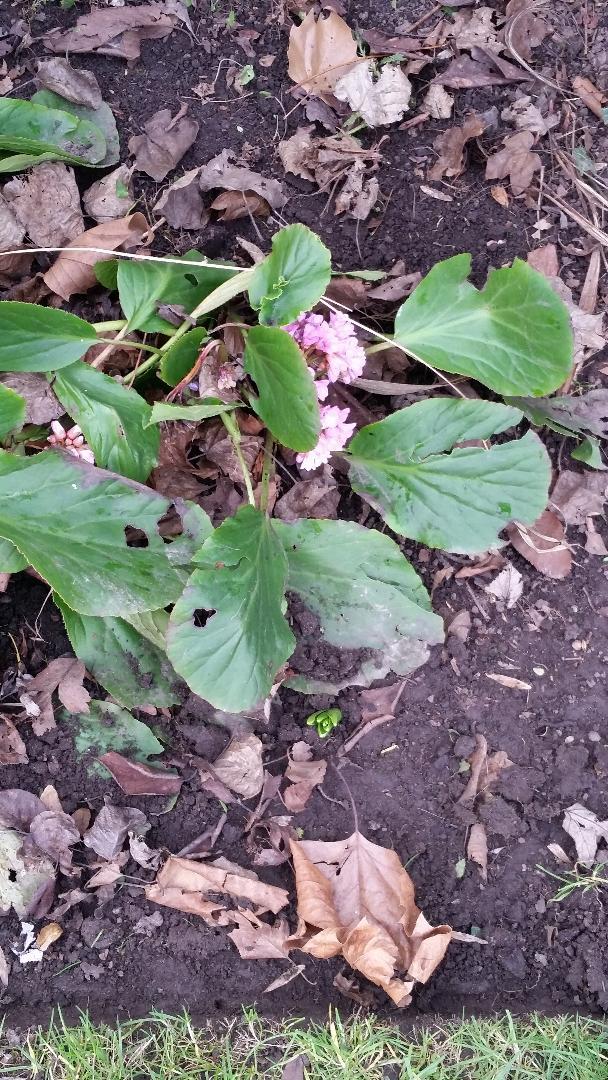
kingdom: Plantae
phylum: Tracheophyta
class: Magnoliopsida
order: Saxifragales
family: Saxifragaceae
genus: Bergenia
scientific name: Bergenia crassifolia
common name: Elephant-ears
